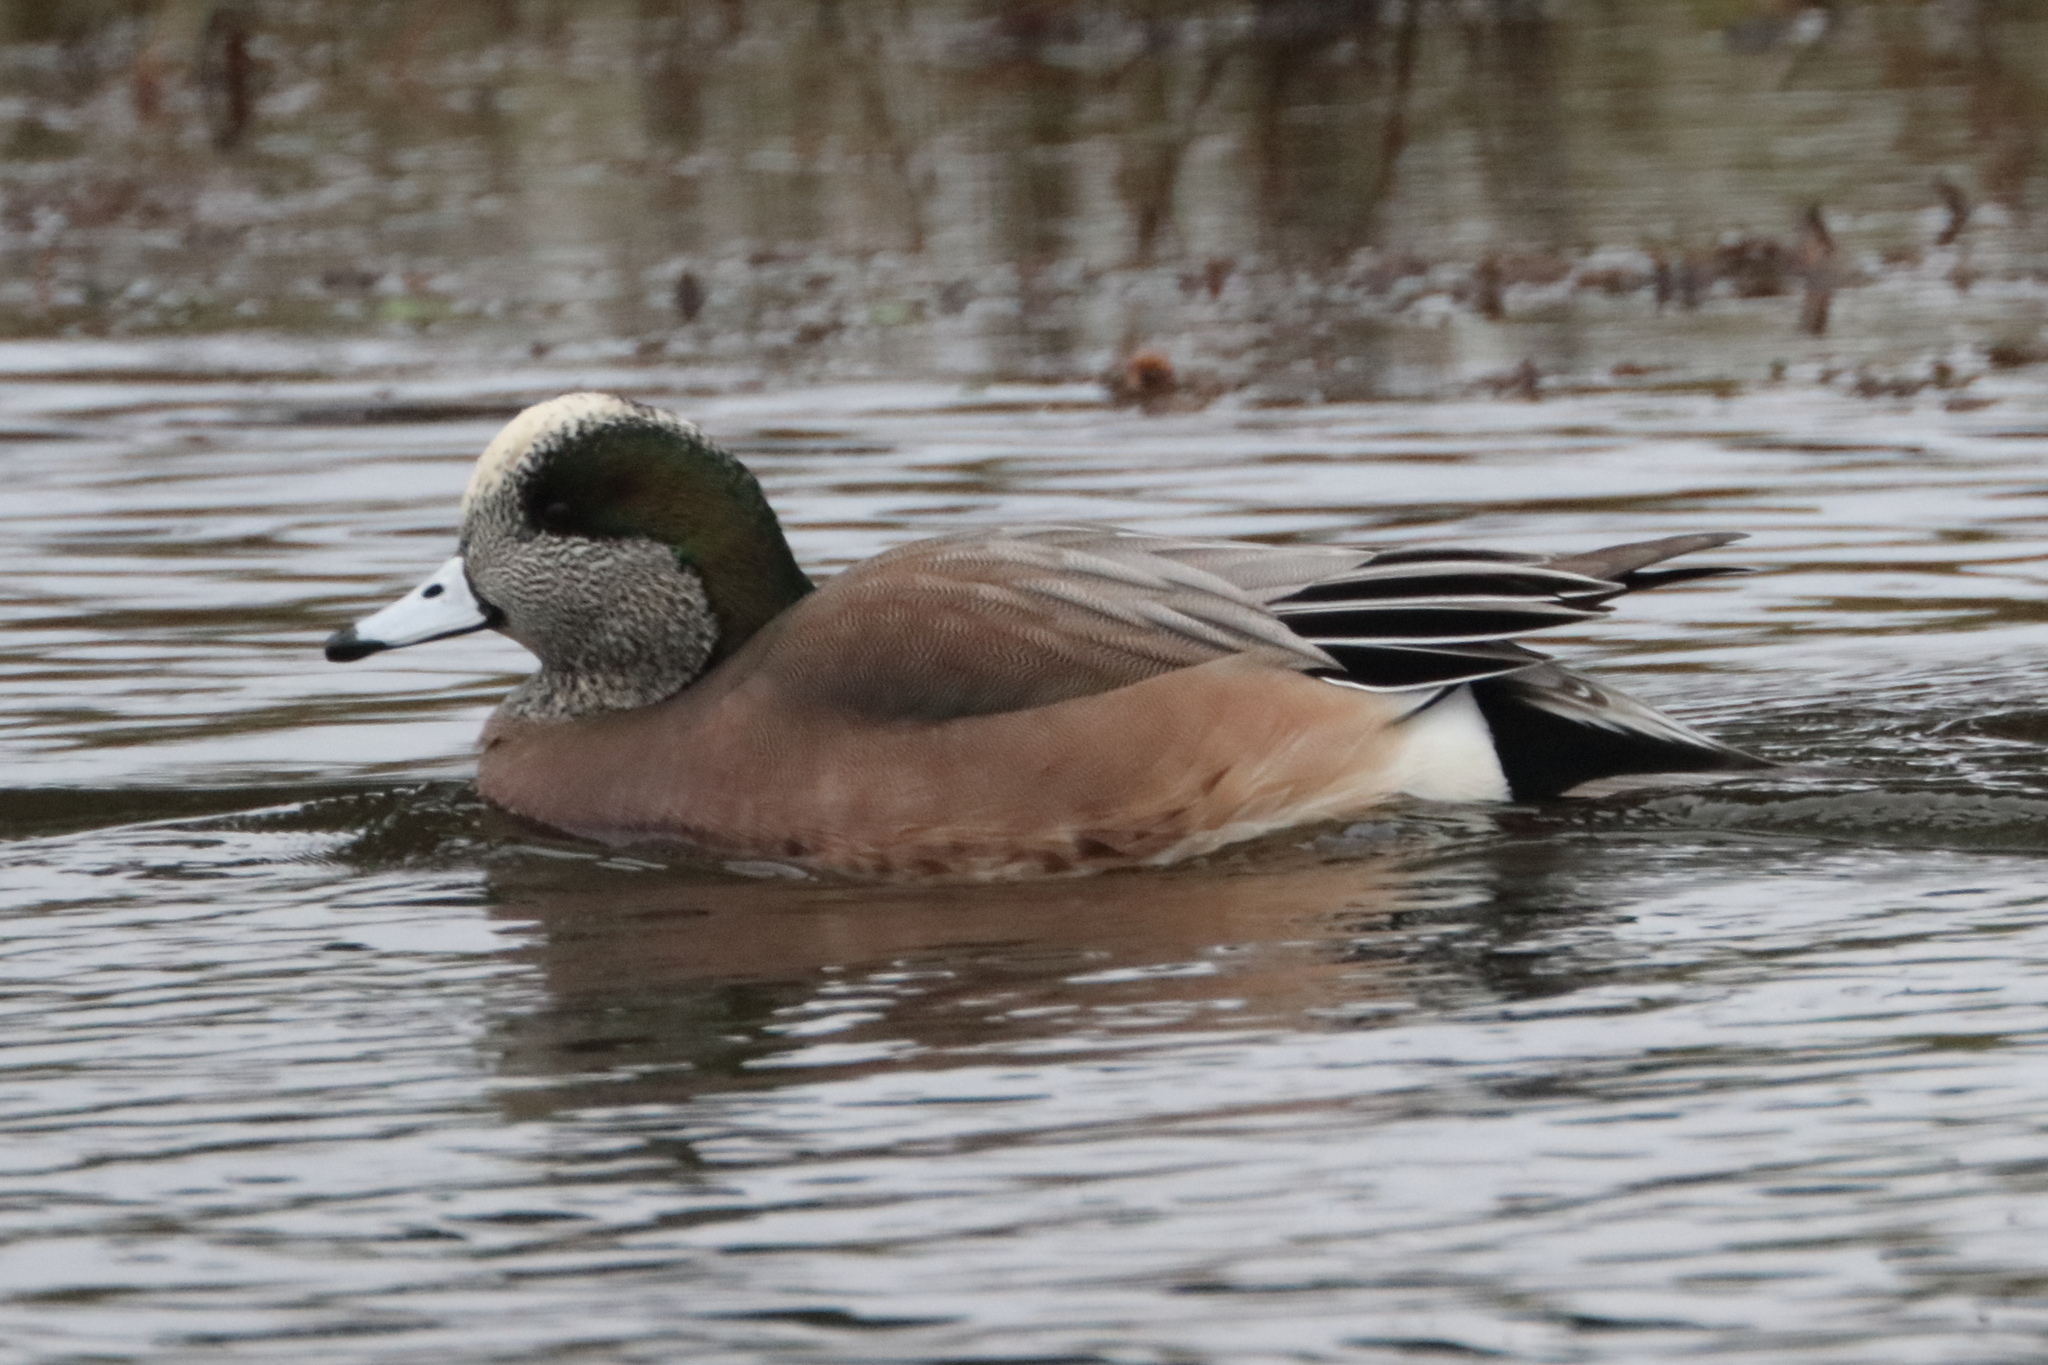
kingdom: Animalia
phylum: Chordata
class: Aves
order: Anseriformes
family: Anatidae
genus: Mareca
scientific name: Mareca americana
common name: American wigeon
